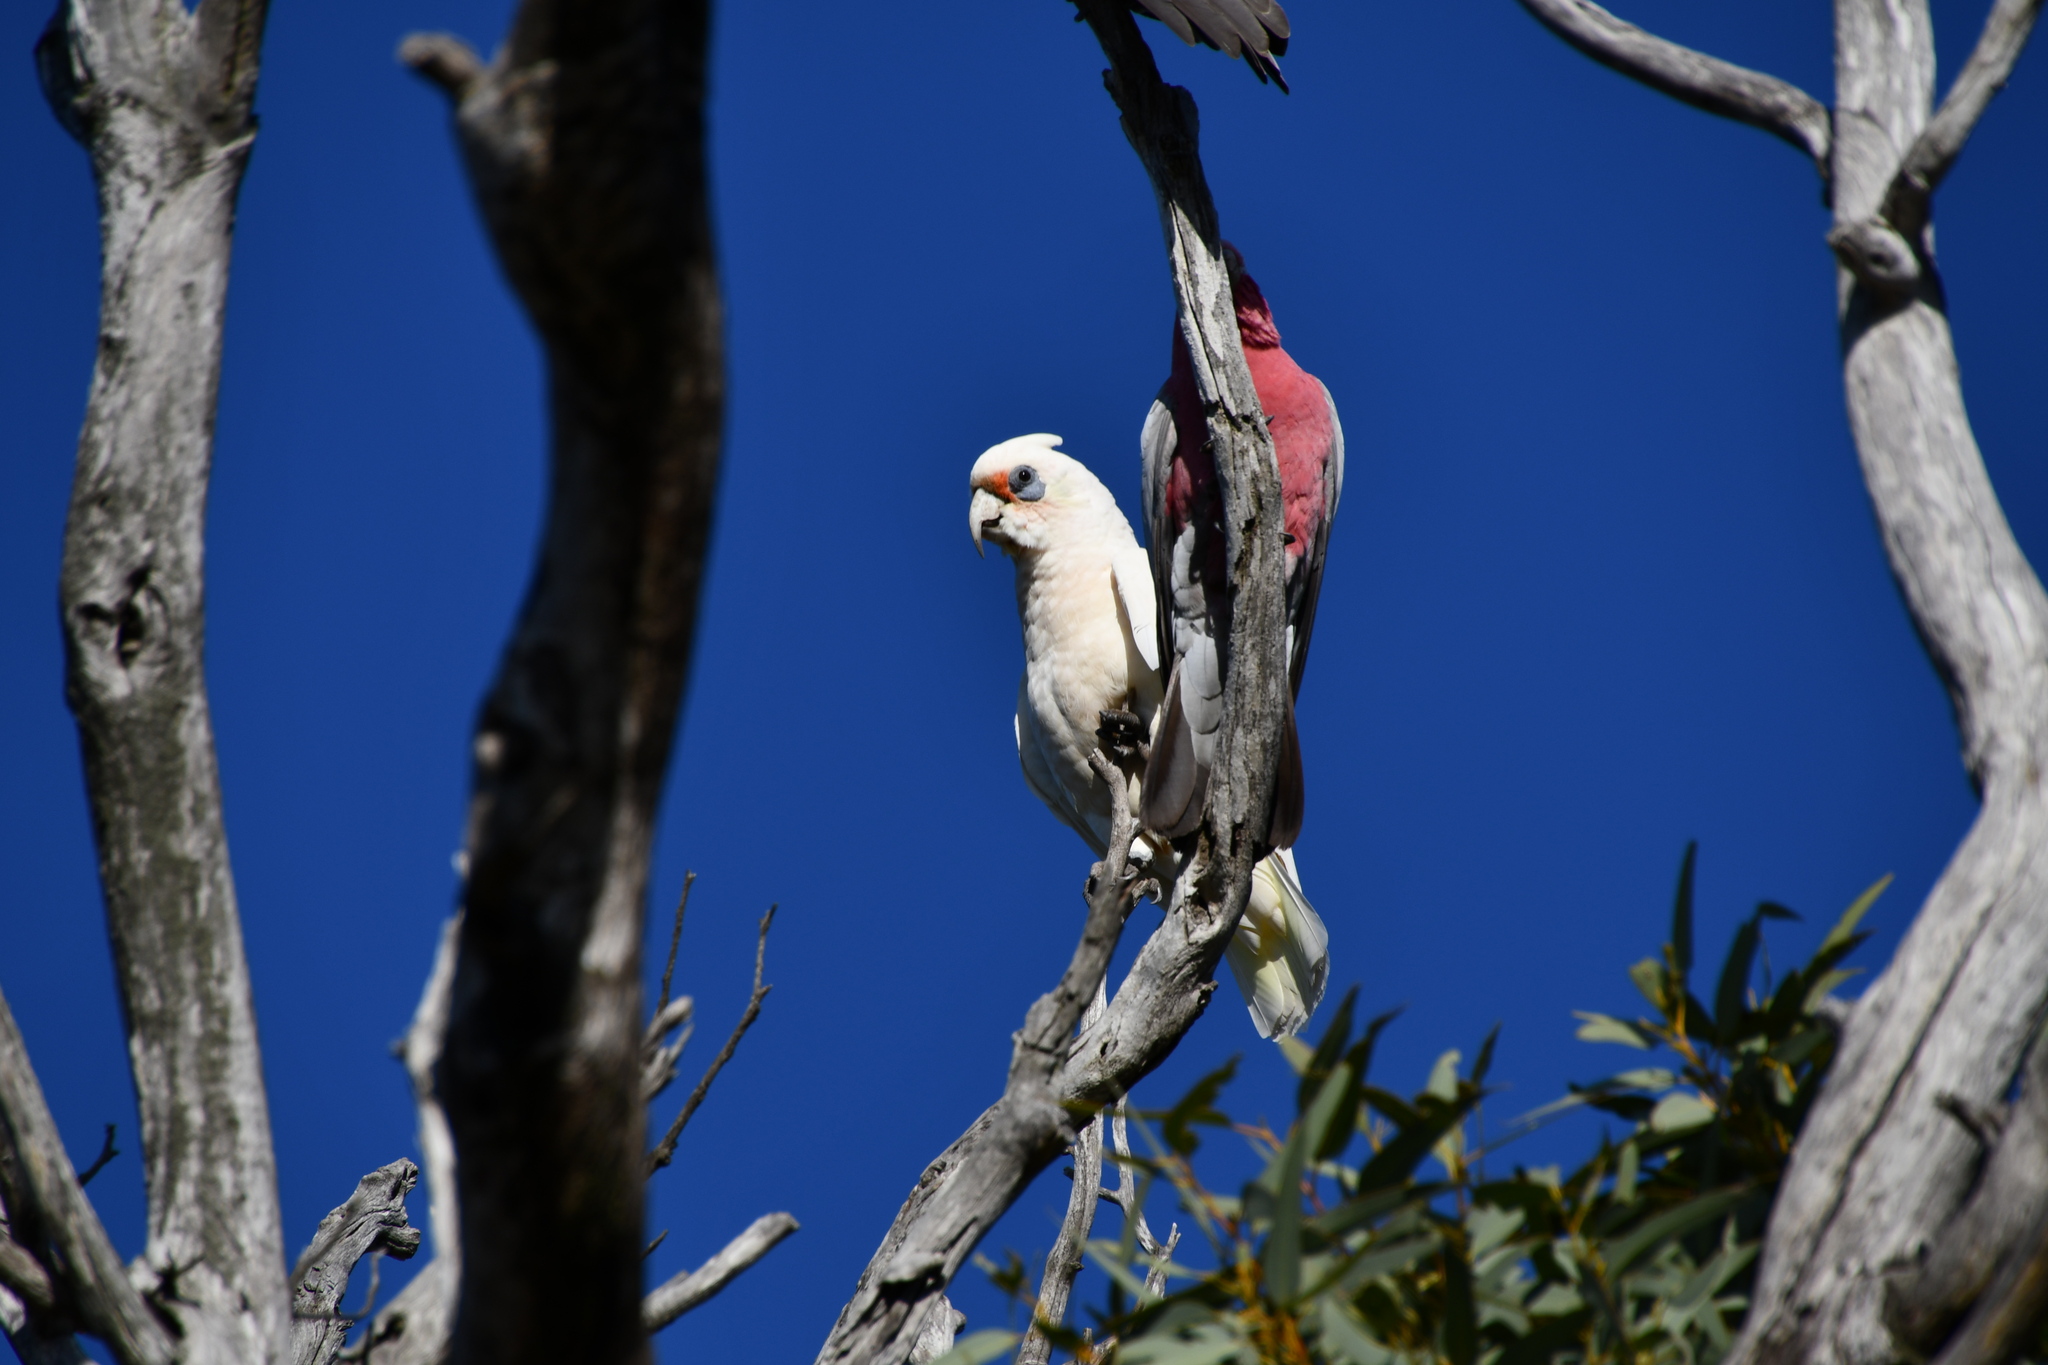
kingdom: Animalia
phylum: Chordata
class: Aves
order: Psittaciformes
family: Psittacidae
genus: Cacatua
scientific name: Cacatua pastinator
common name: Western corella
